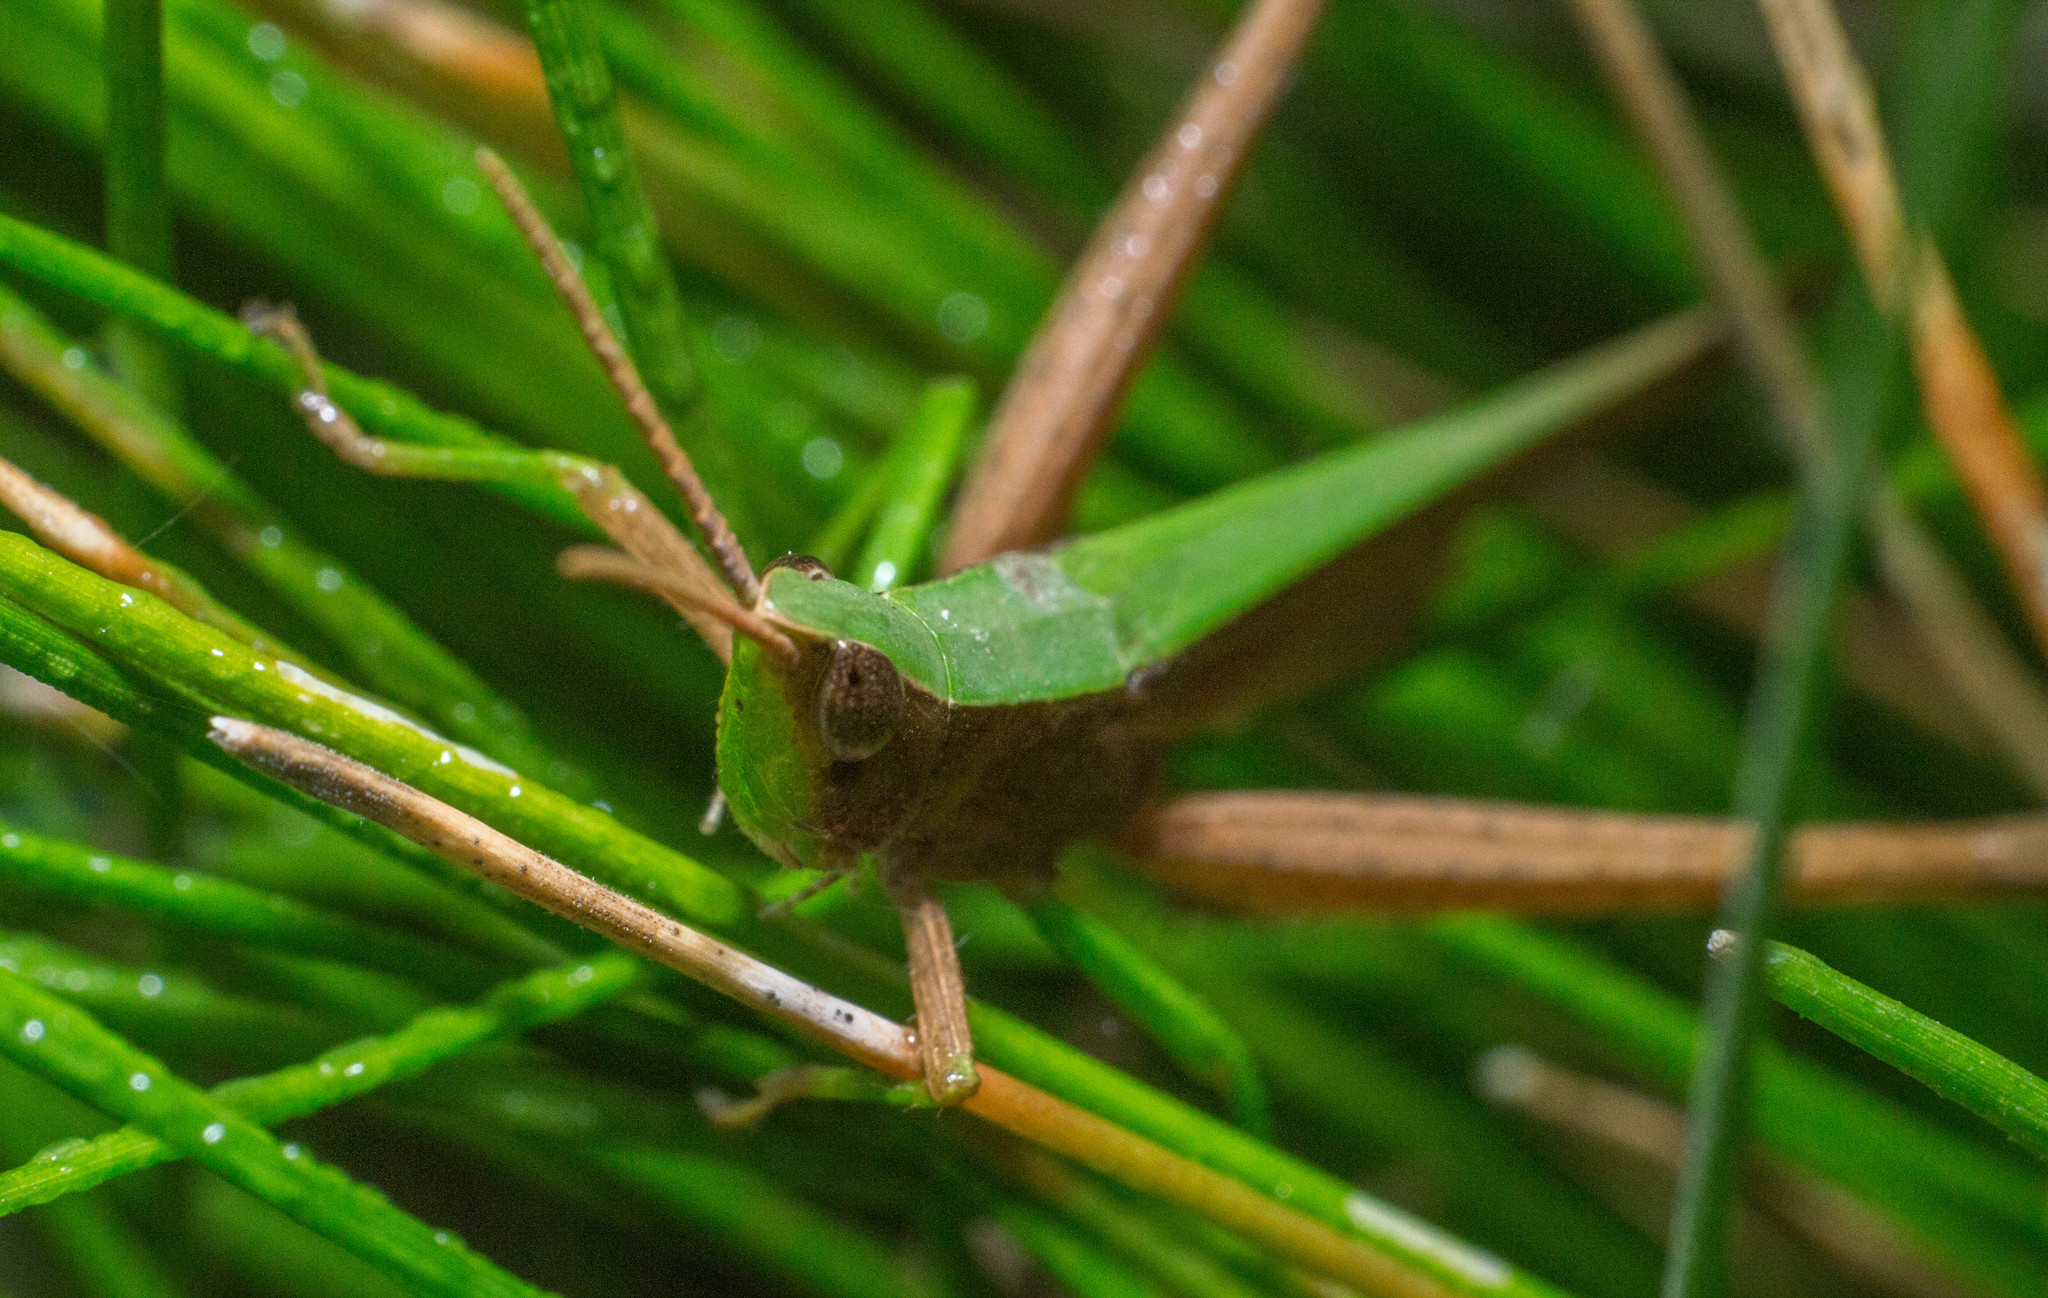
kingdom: Animalia
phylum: Arthropoda
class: Insecta
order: Orthoptera
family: Acrididae
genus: Metaleptea
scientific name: Metaleptea adspersa
